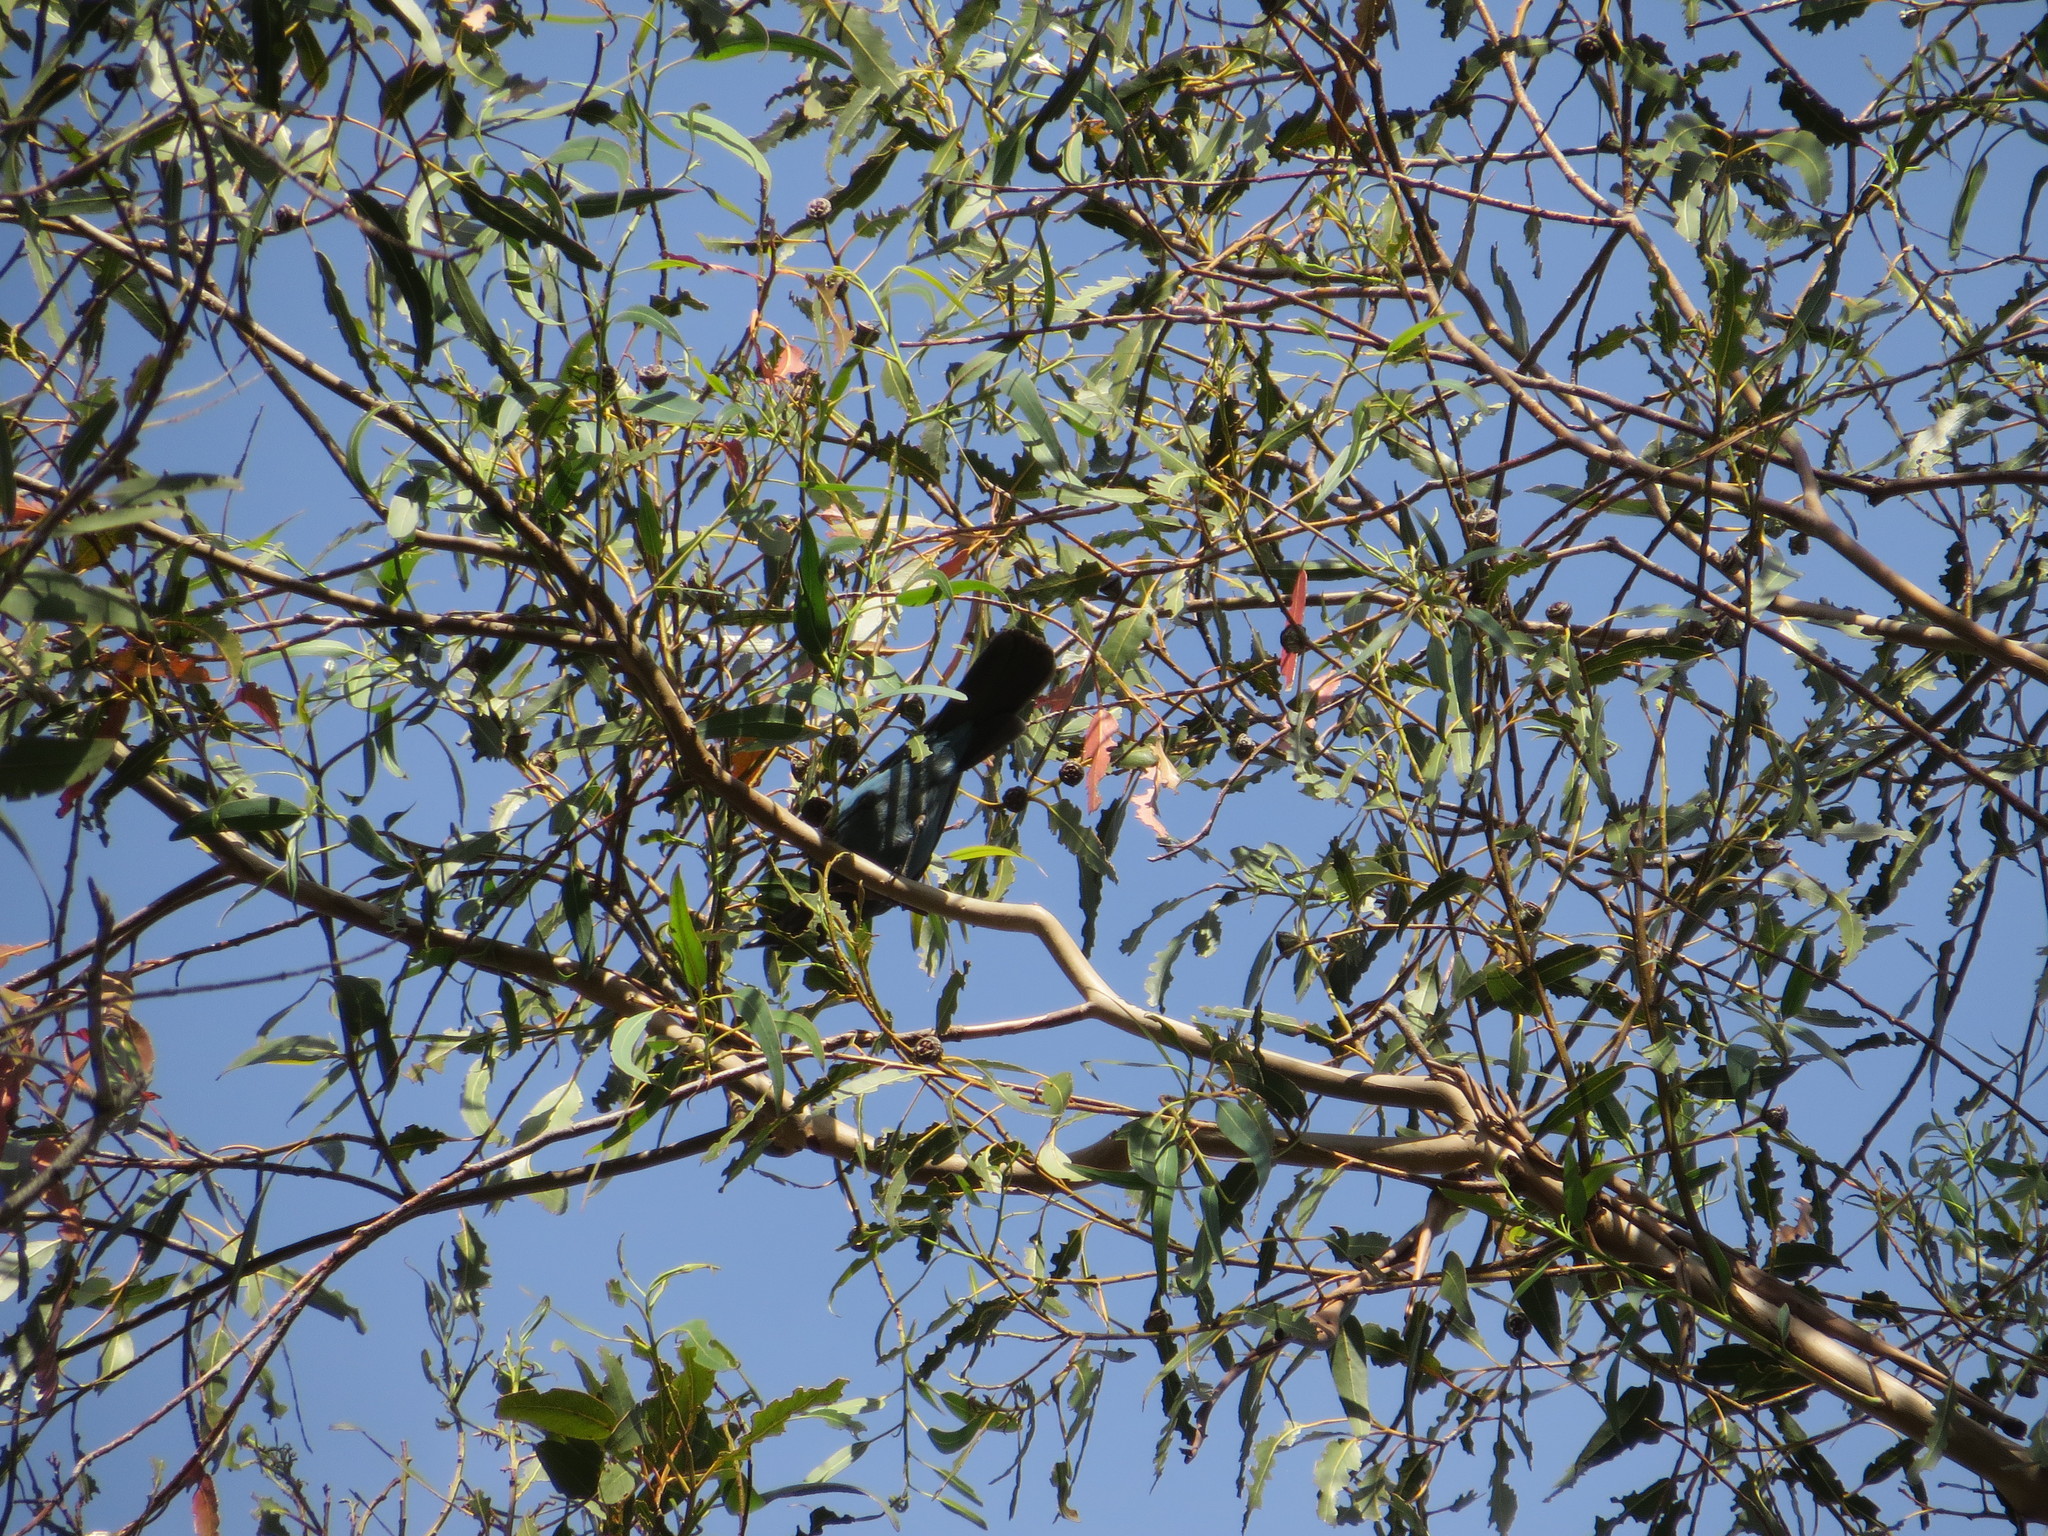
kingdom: Animalia
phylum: Chordata
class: Aves
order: Passeriformes
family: Corvidae
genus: Cyanocitta
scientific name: Cyanocitta stelleri
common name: Steller's jay
